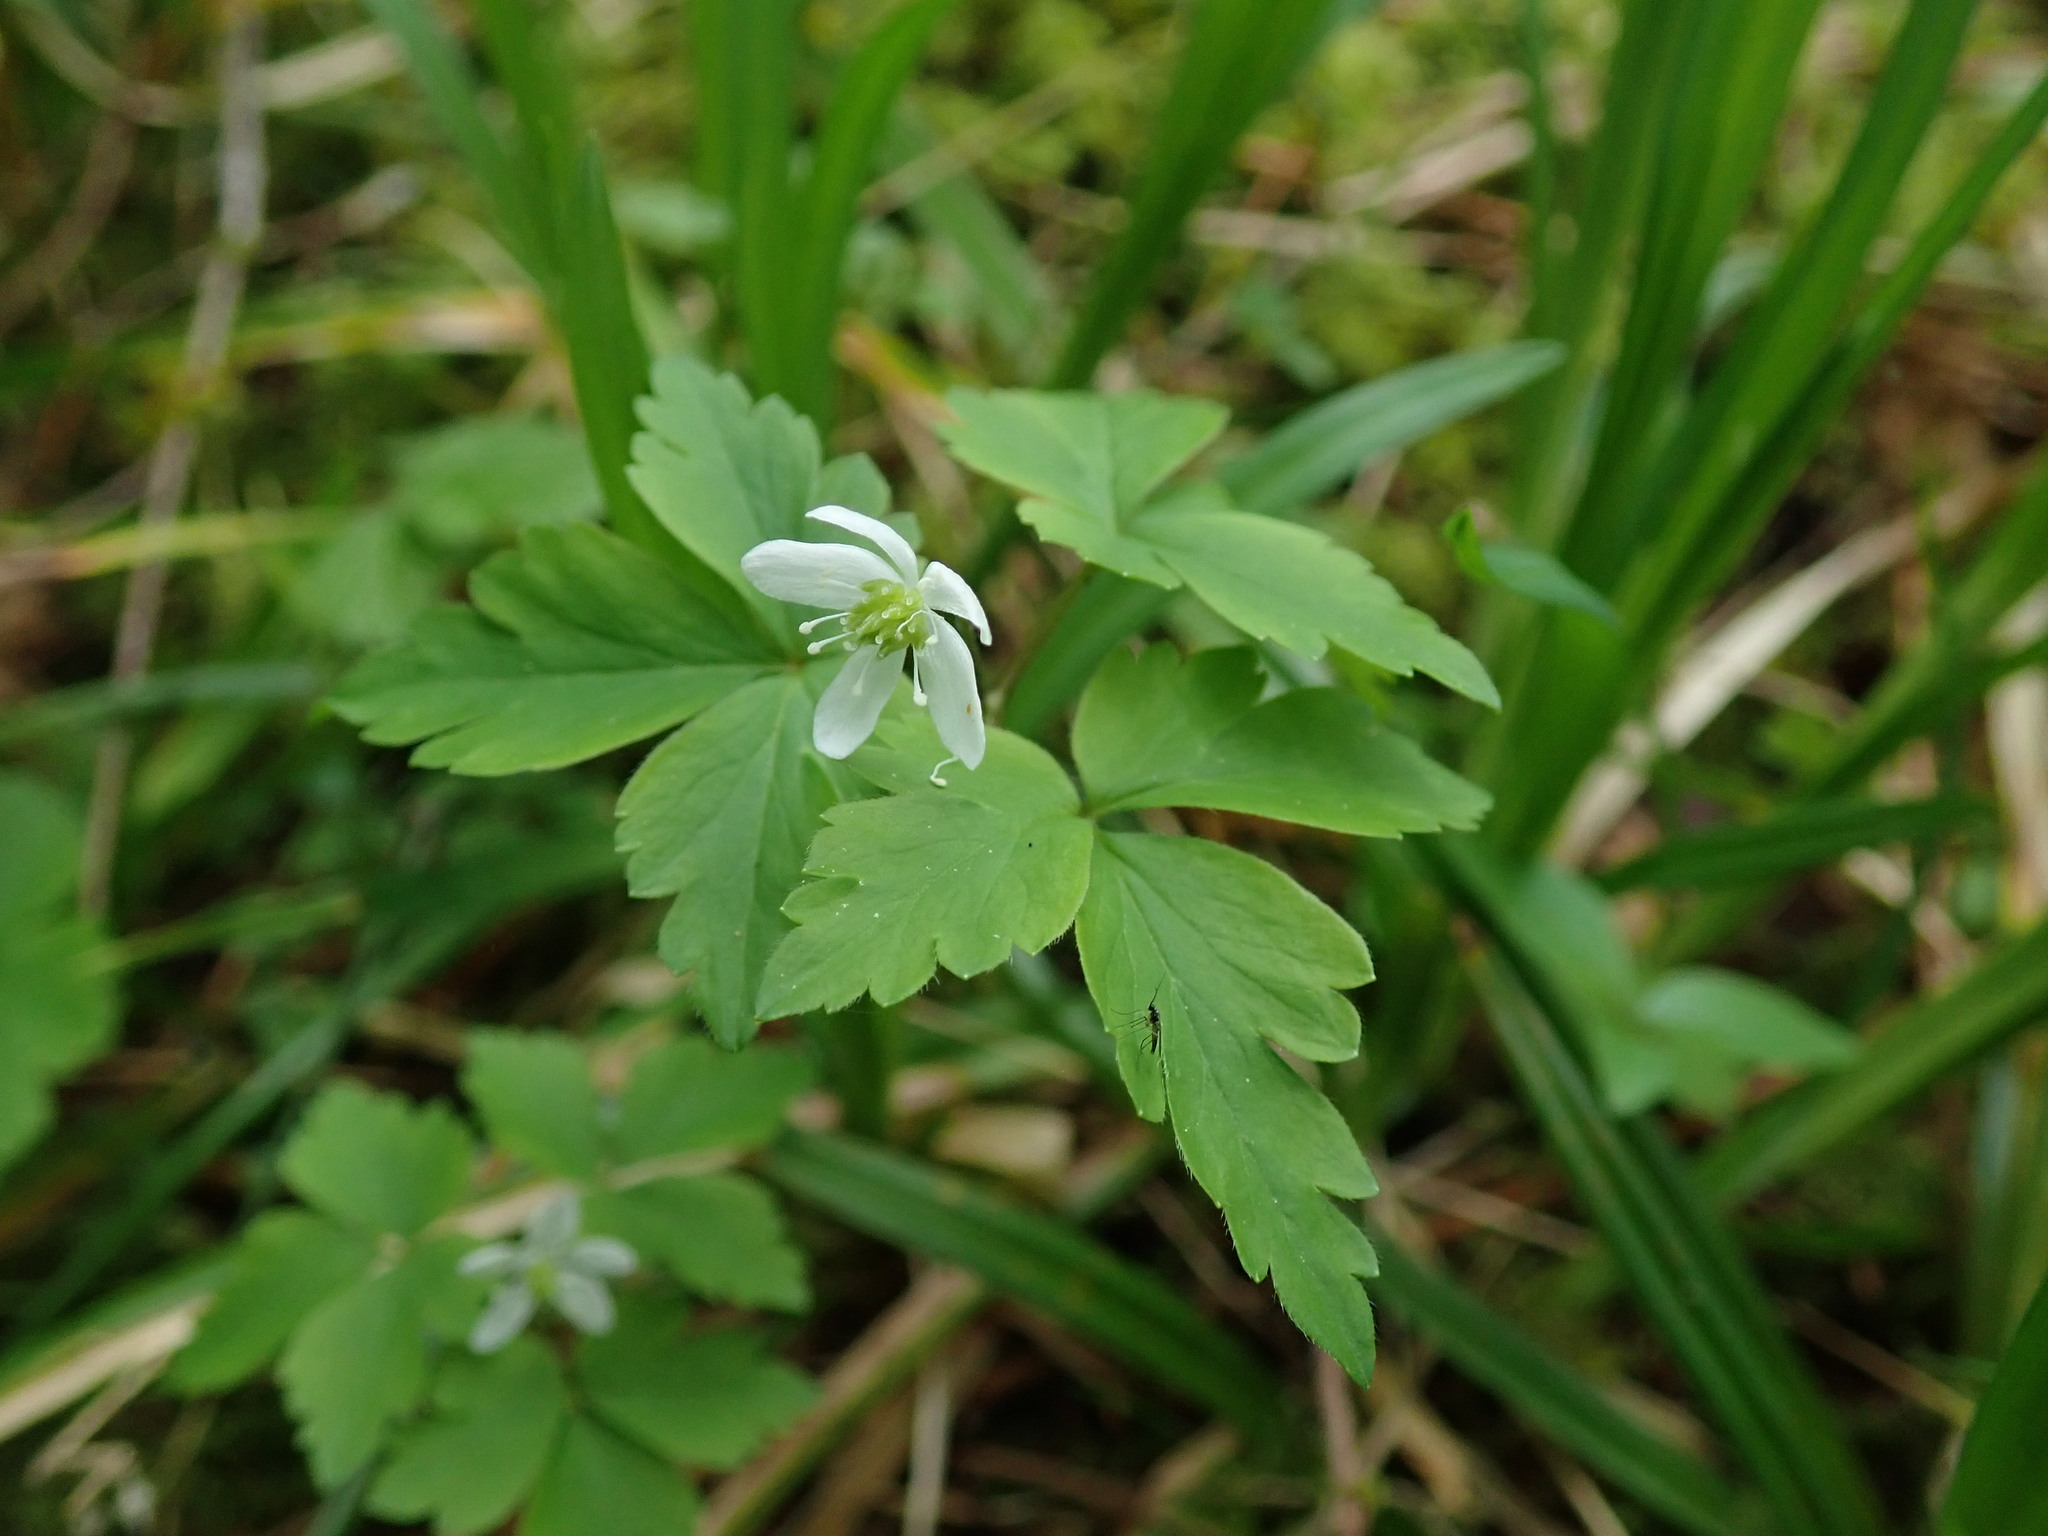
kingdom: Plantae
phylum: Tracheophyta
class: Magnoliopsida
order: Ranunculales
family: Ranunculaceae
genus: Anemone
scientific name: Anemone
